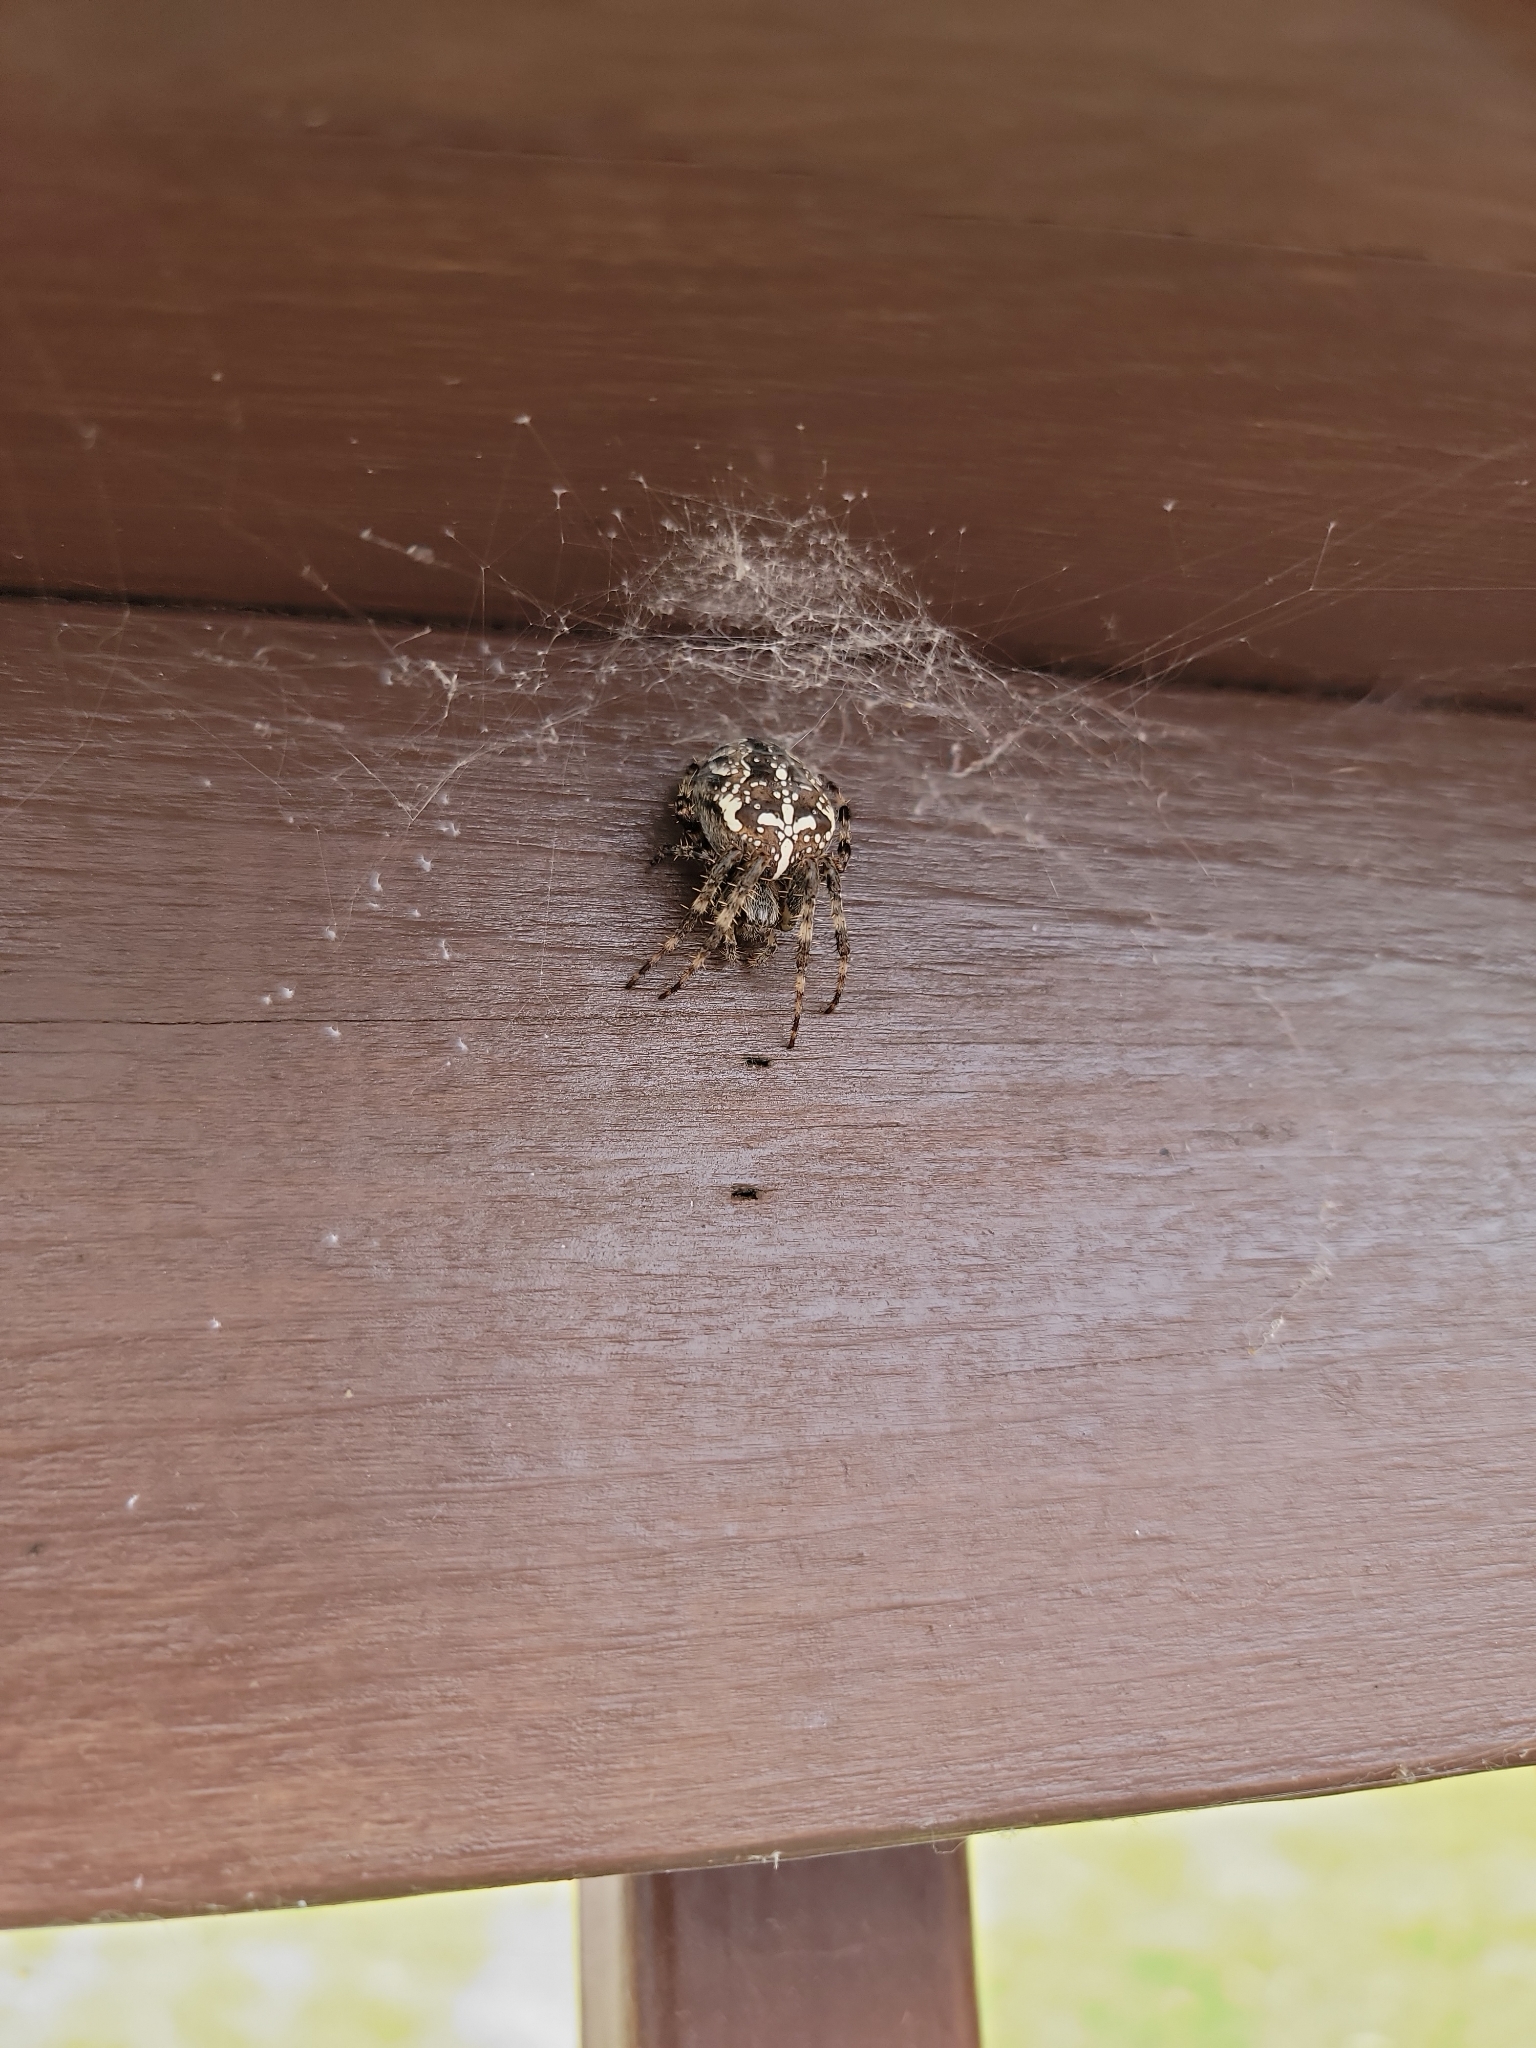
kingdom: Animalia
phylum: Arthropoda
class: Arachnida
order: Araneae
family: Araneidae
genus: Araneus
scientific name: Araneus diadematus
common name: Cross orbweaver
